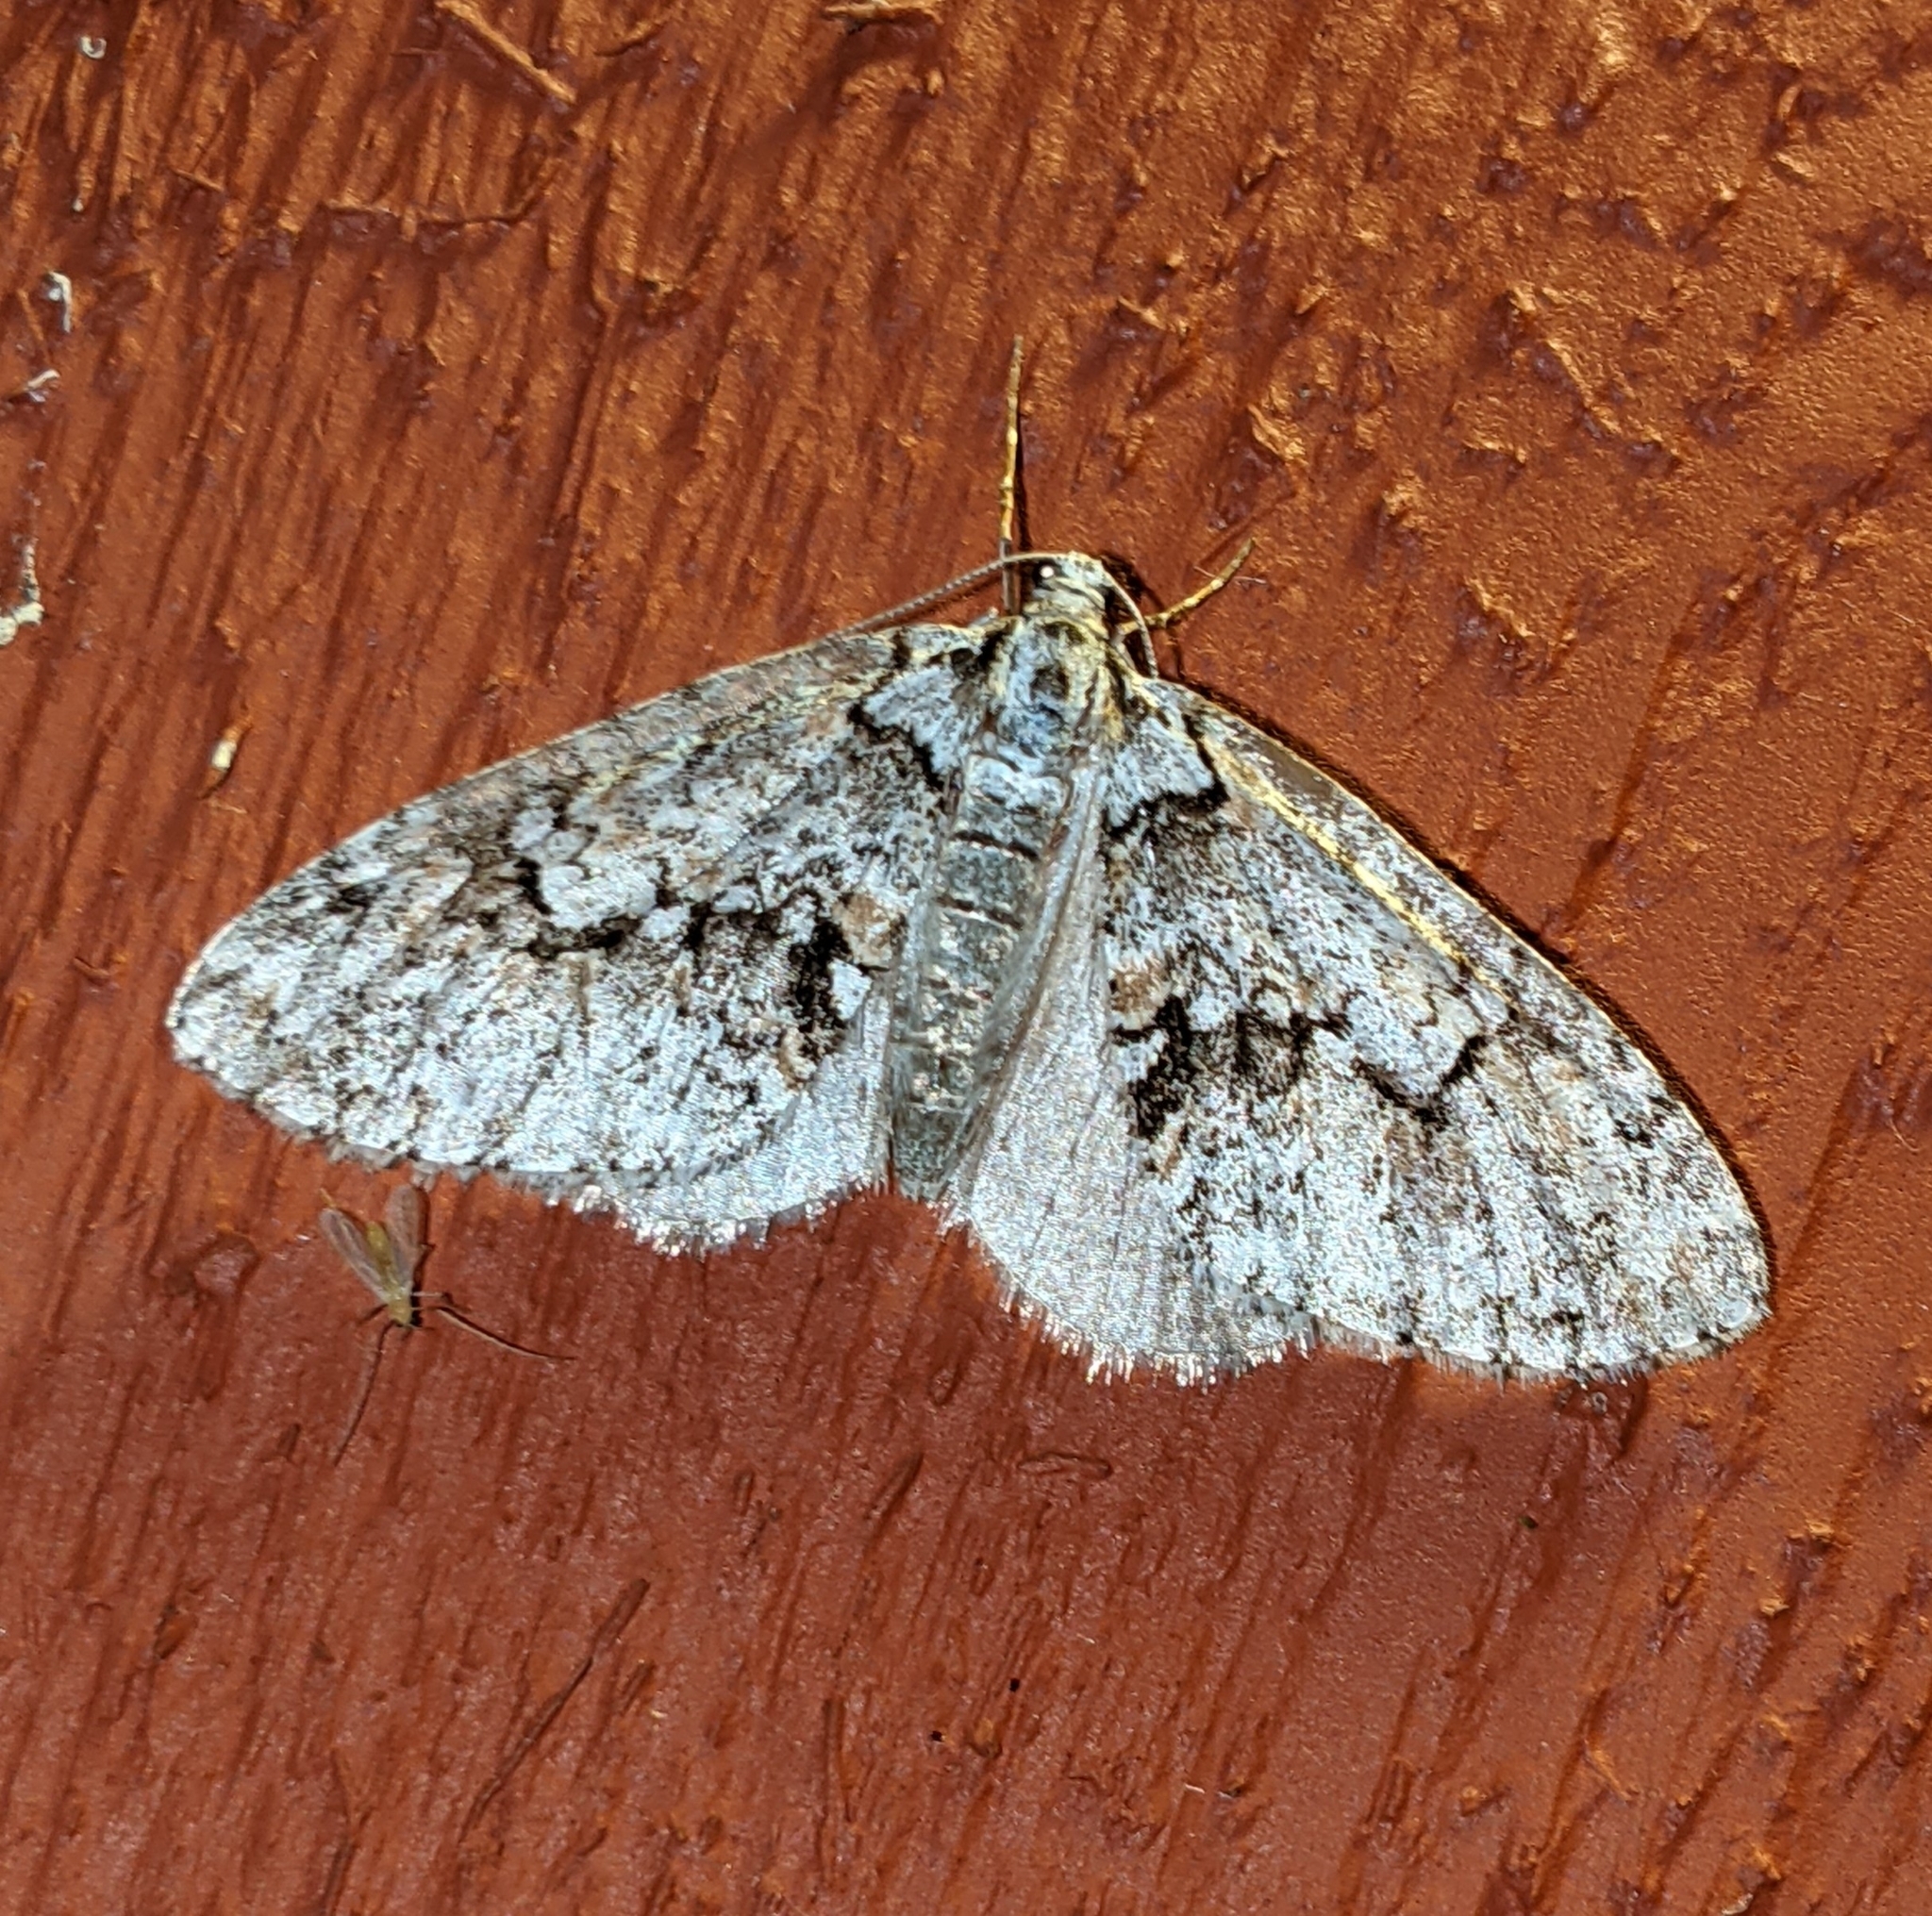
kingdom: Animalia
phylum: Arthropoda
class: Insecta
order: Lepidoptera
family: Geometridae
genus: Cladara
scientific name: Cladara limitaria
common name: Mottled gray carpet
